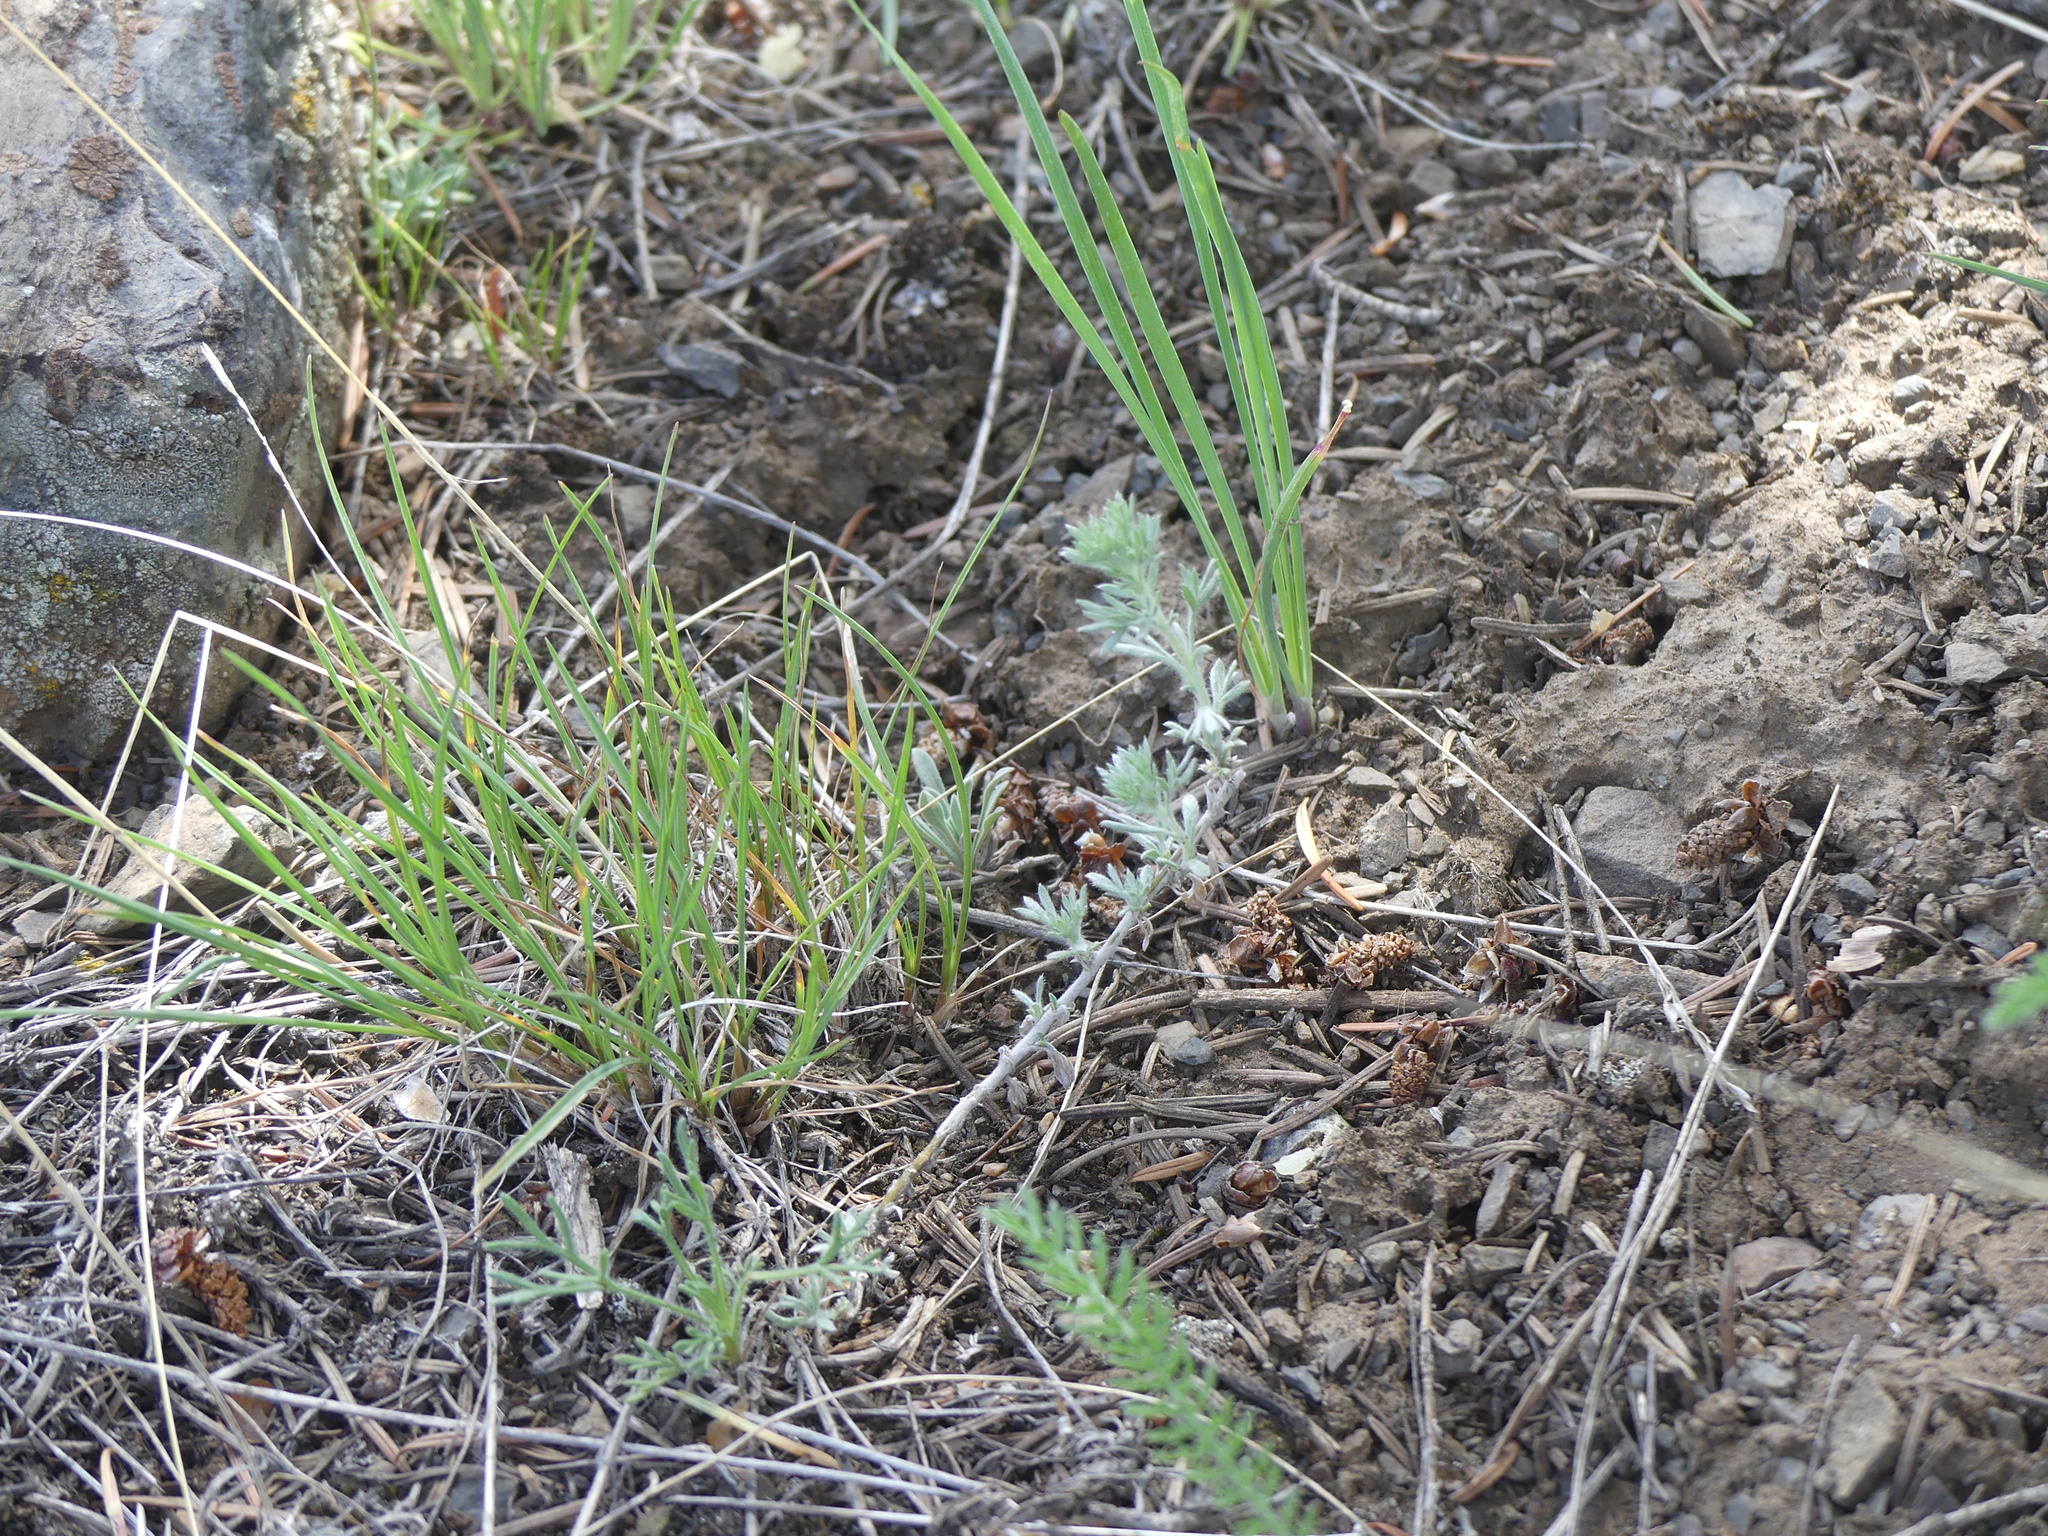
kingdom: Plantae
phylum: Tracheophyta
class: Magnoliopsida
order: Asterales
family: Asteraceae
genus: Artemisia
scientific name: Artemisia frigida
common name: Prairie sagewort
